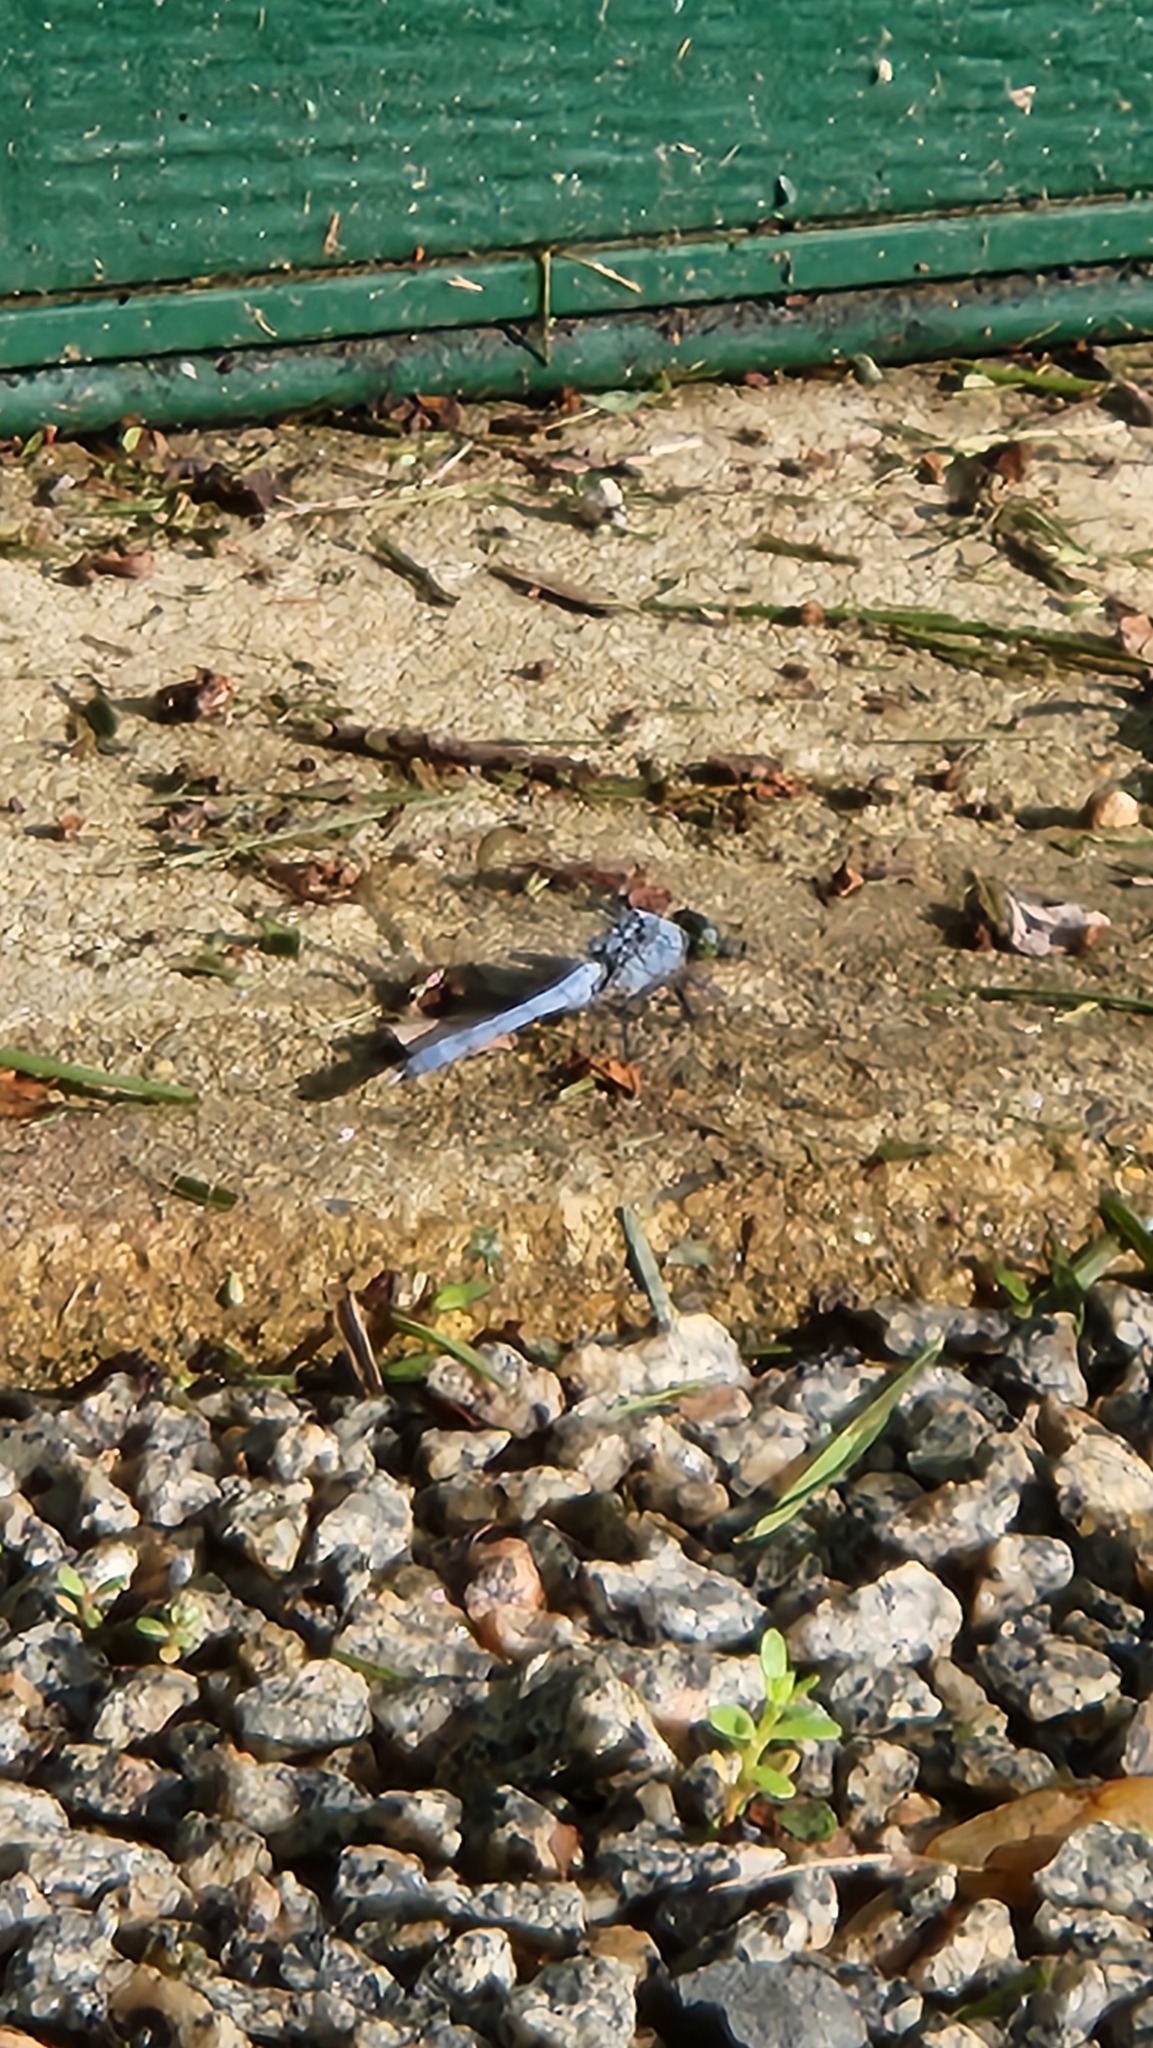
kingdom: Animalia
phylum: Arthropoda
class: Insecta
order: Odonata
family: Libellulidae
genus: Erythemis
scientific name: Erythemis simplicicollis
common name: Eastern pondhawk
